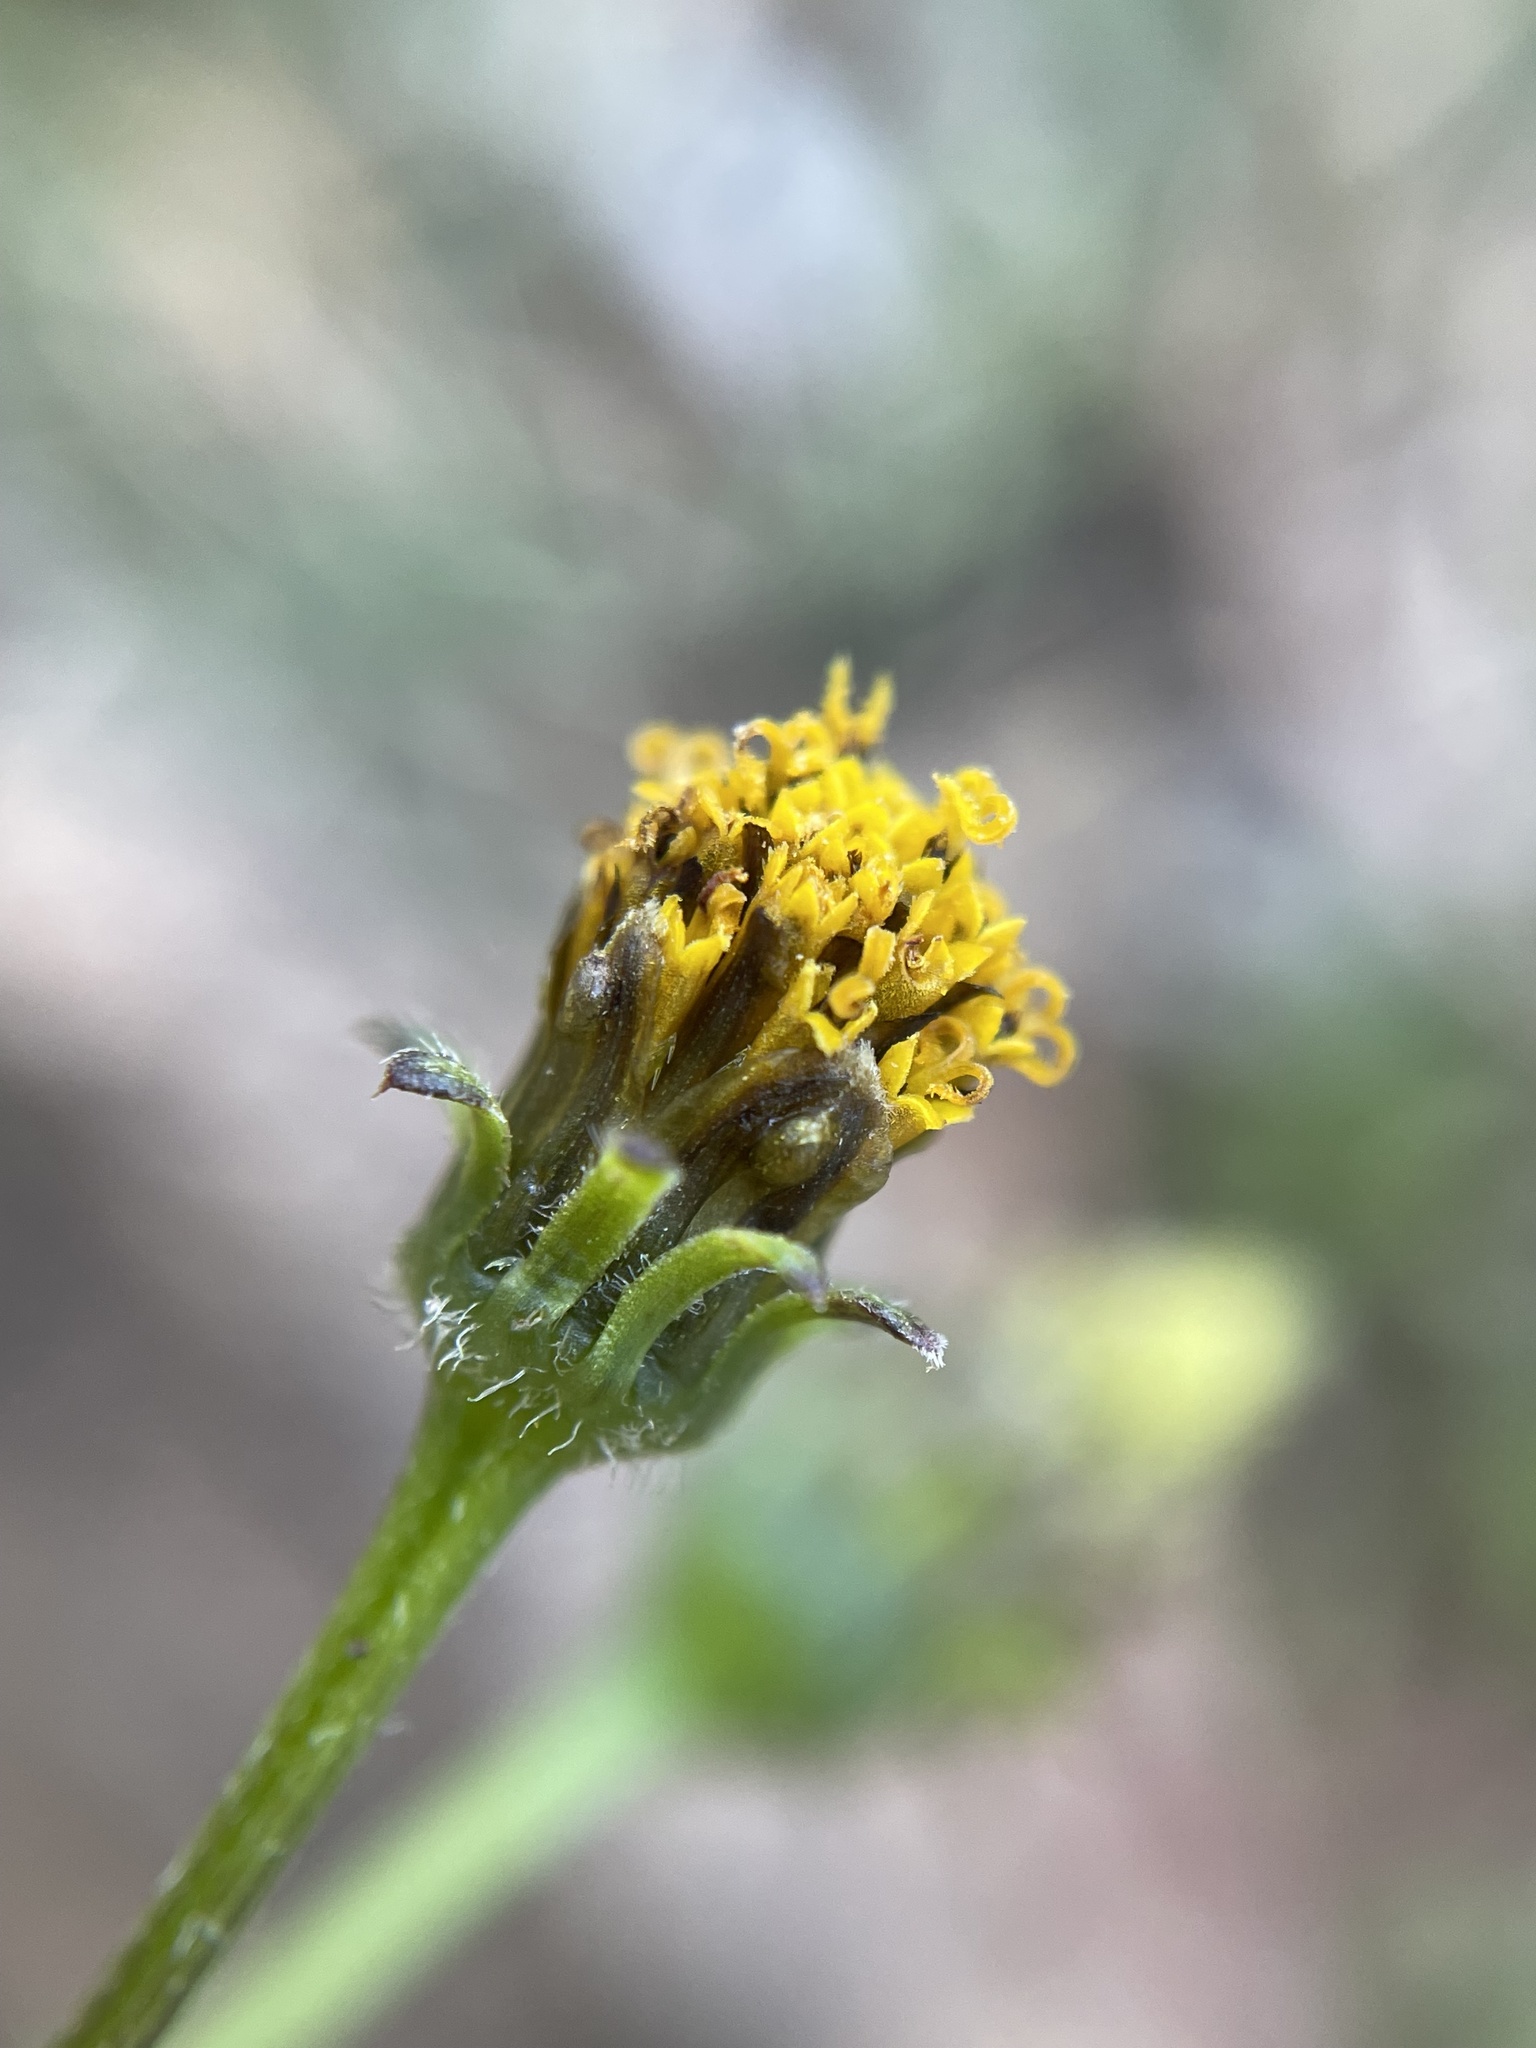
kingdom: Plantae
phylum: Tracheophyta
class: Magnoliopsida
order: Asterales
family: Asteraceae
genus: Bidens
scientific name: Bidens pilosa
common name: Black-jack
